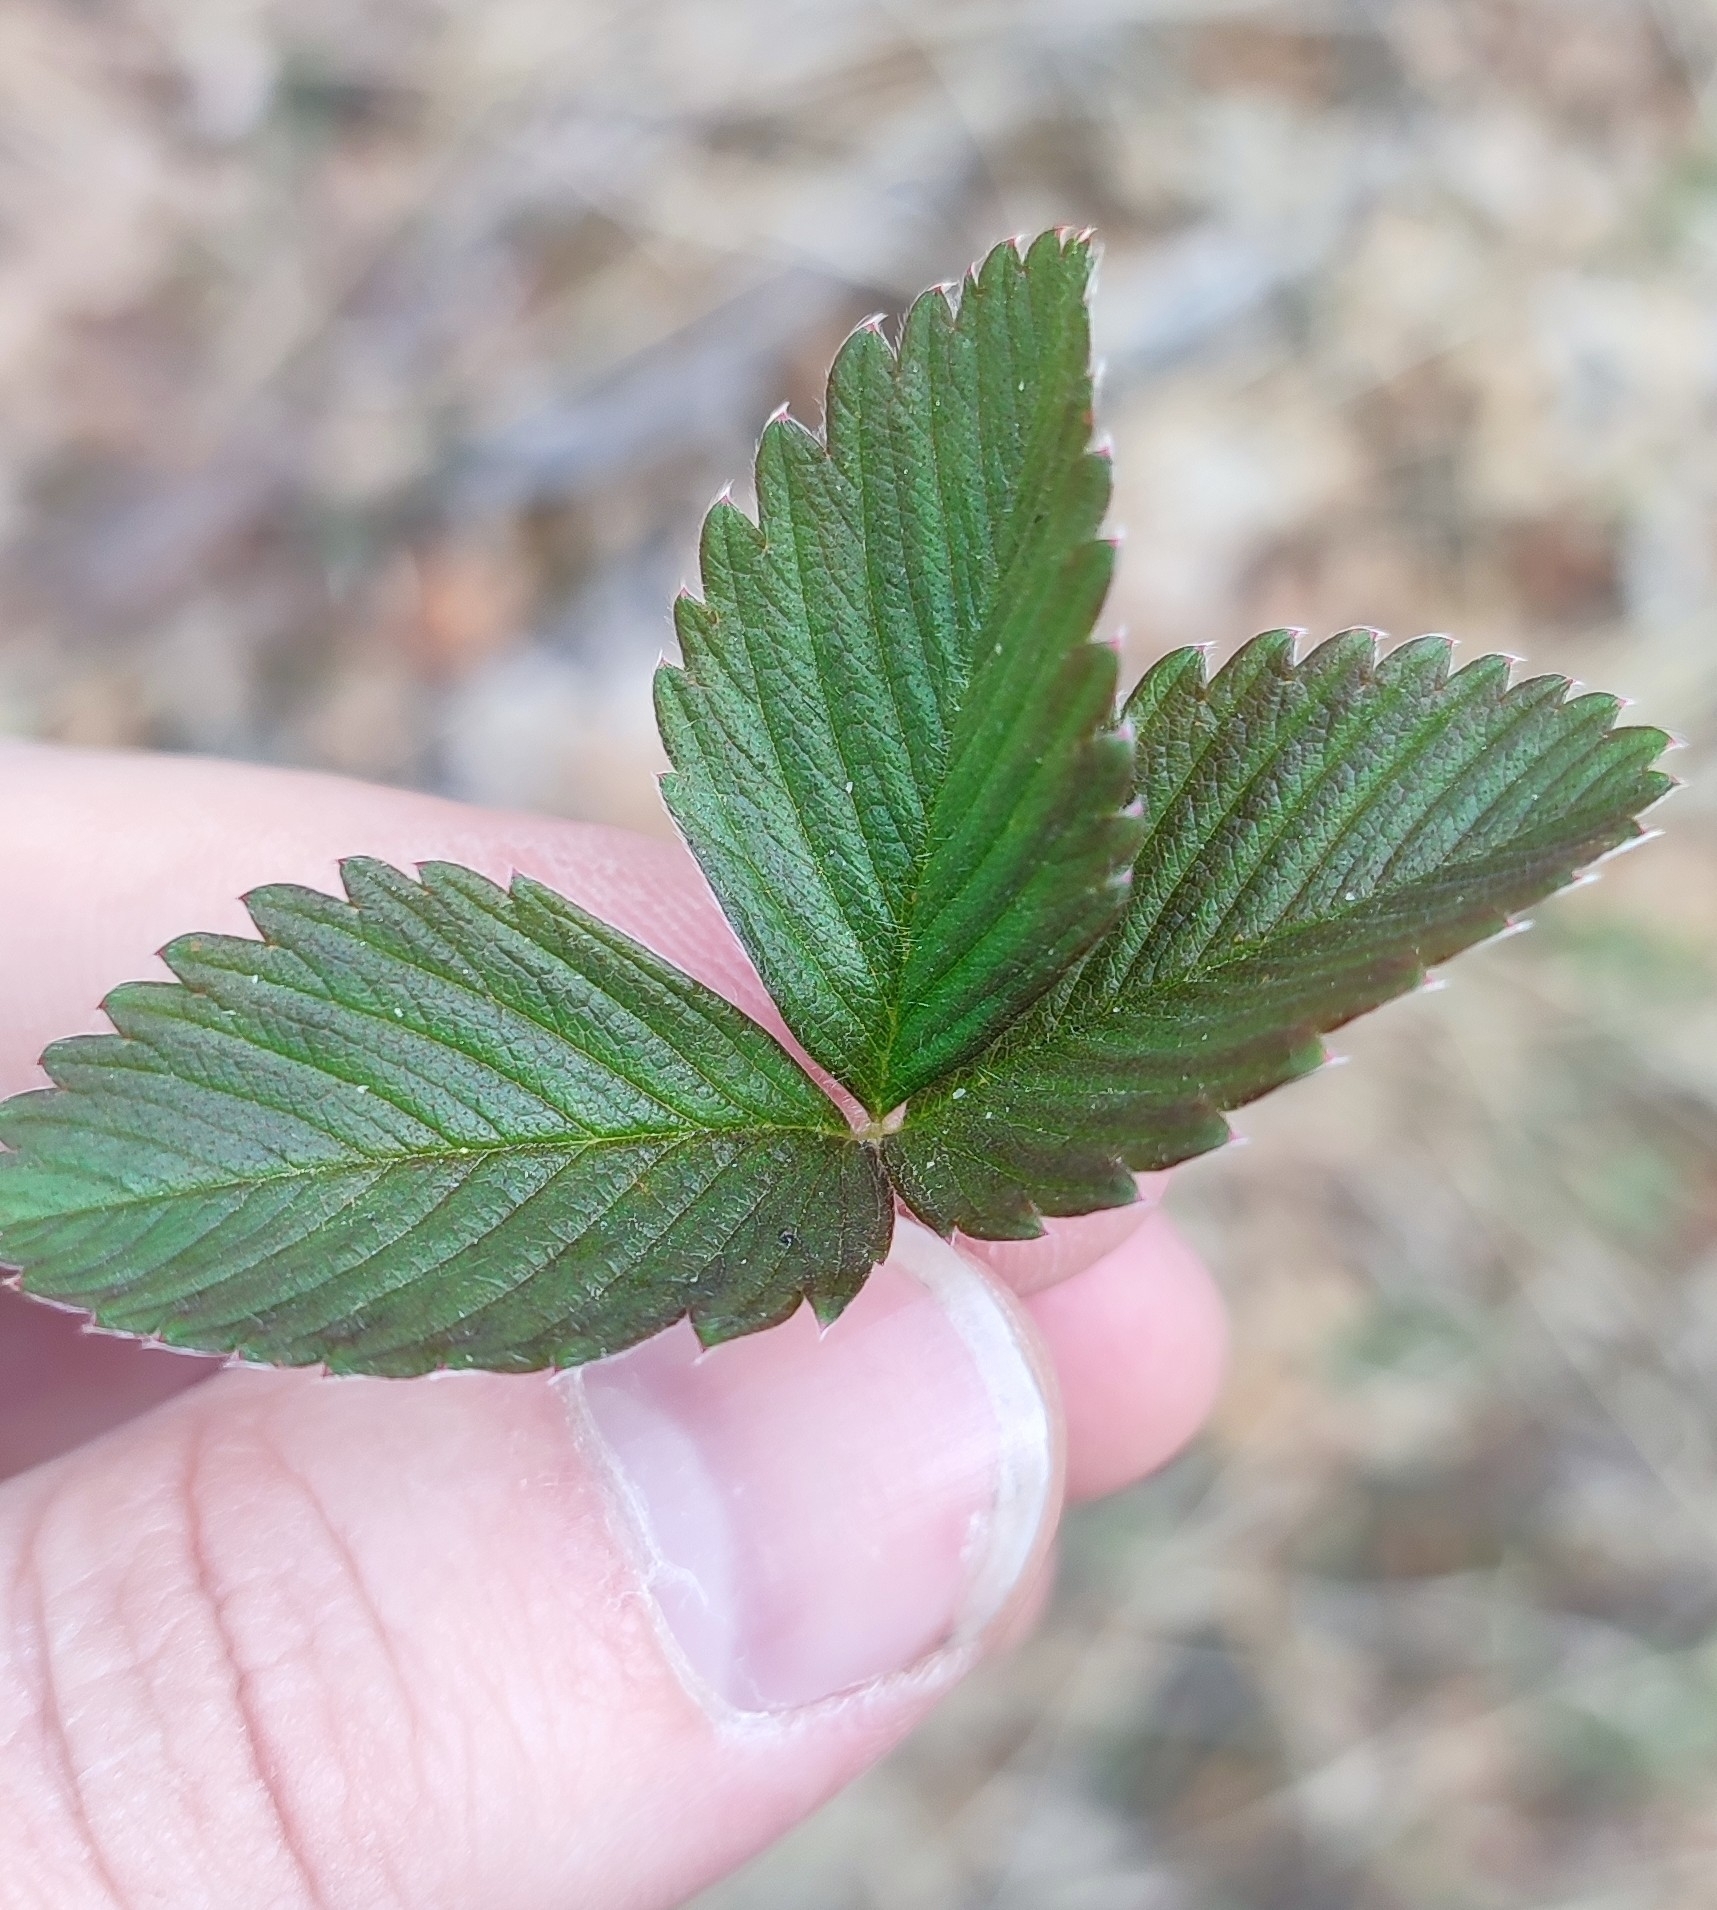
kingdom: Plantae
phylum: Tracheophyta
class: Magnoliopsida
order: Rosales
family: Rosaceae
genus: Fragaria
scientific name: Fragaria viridis
